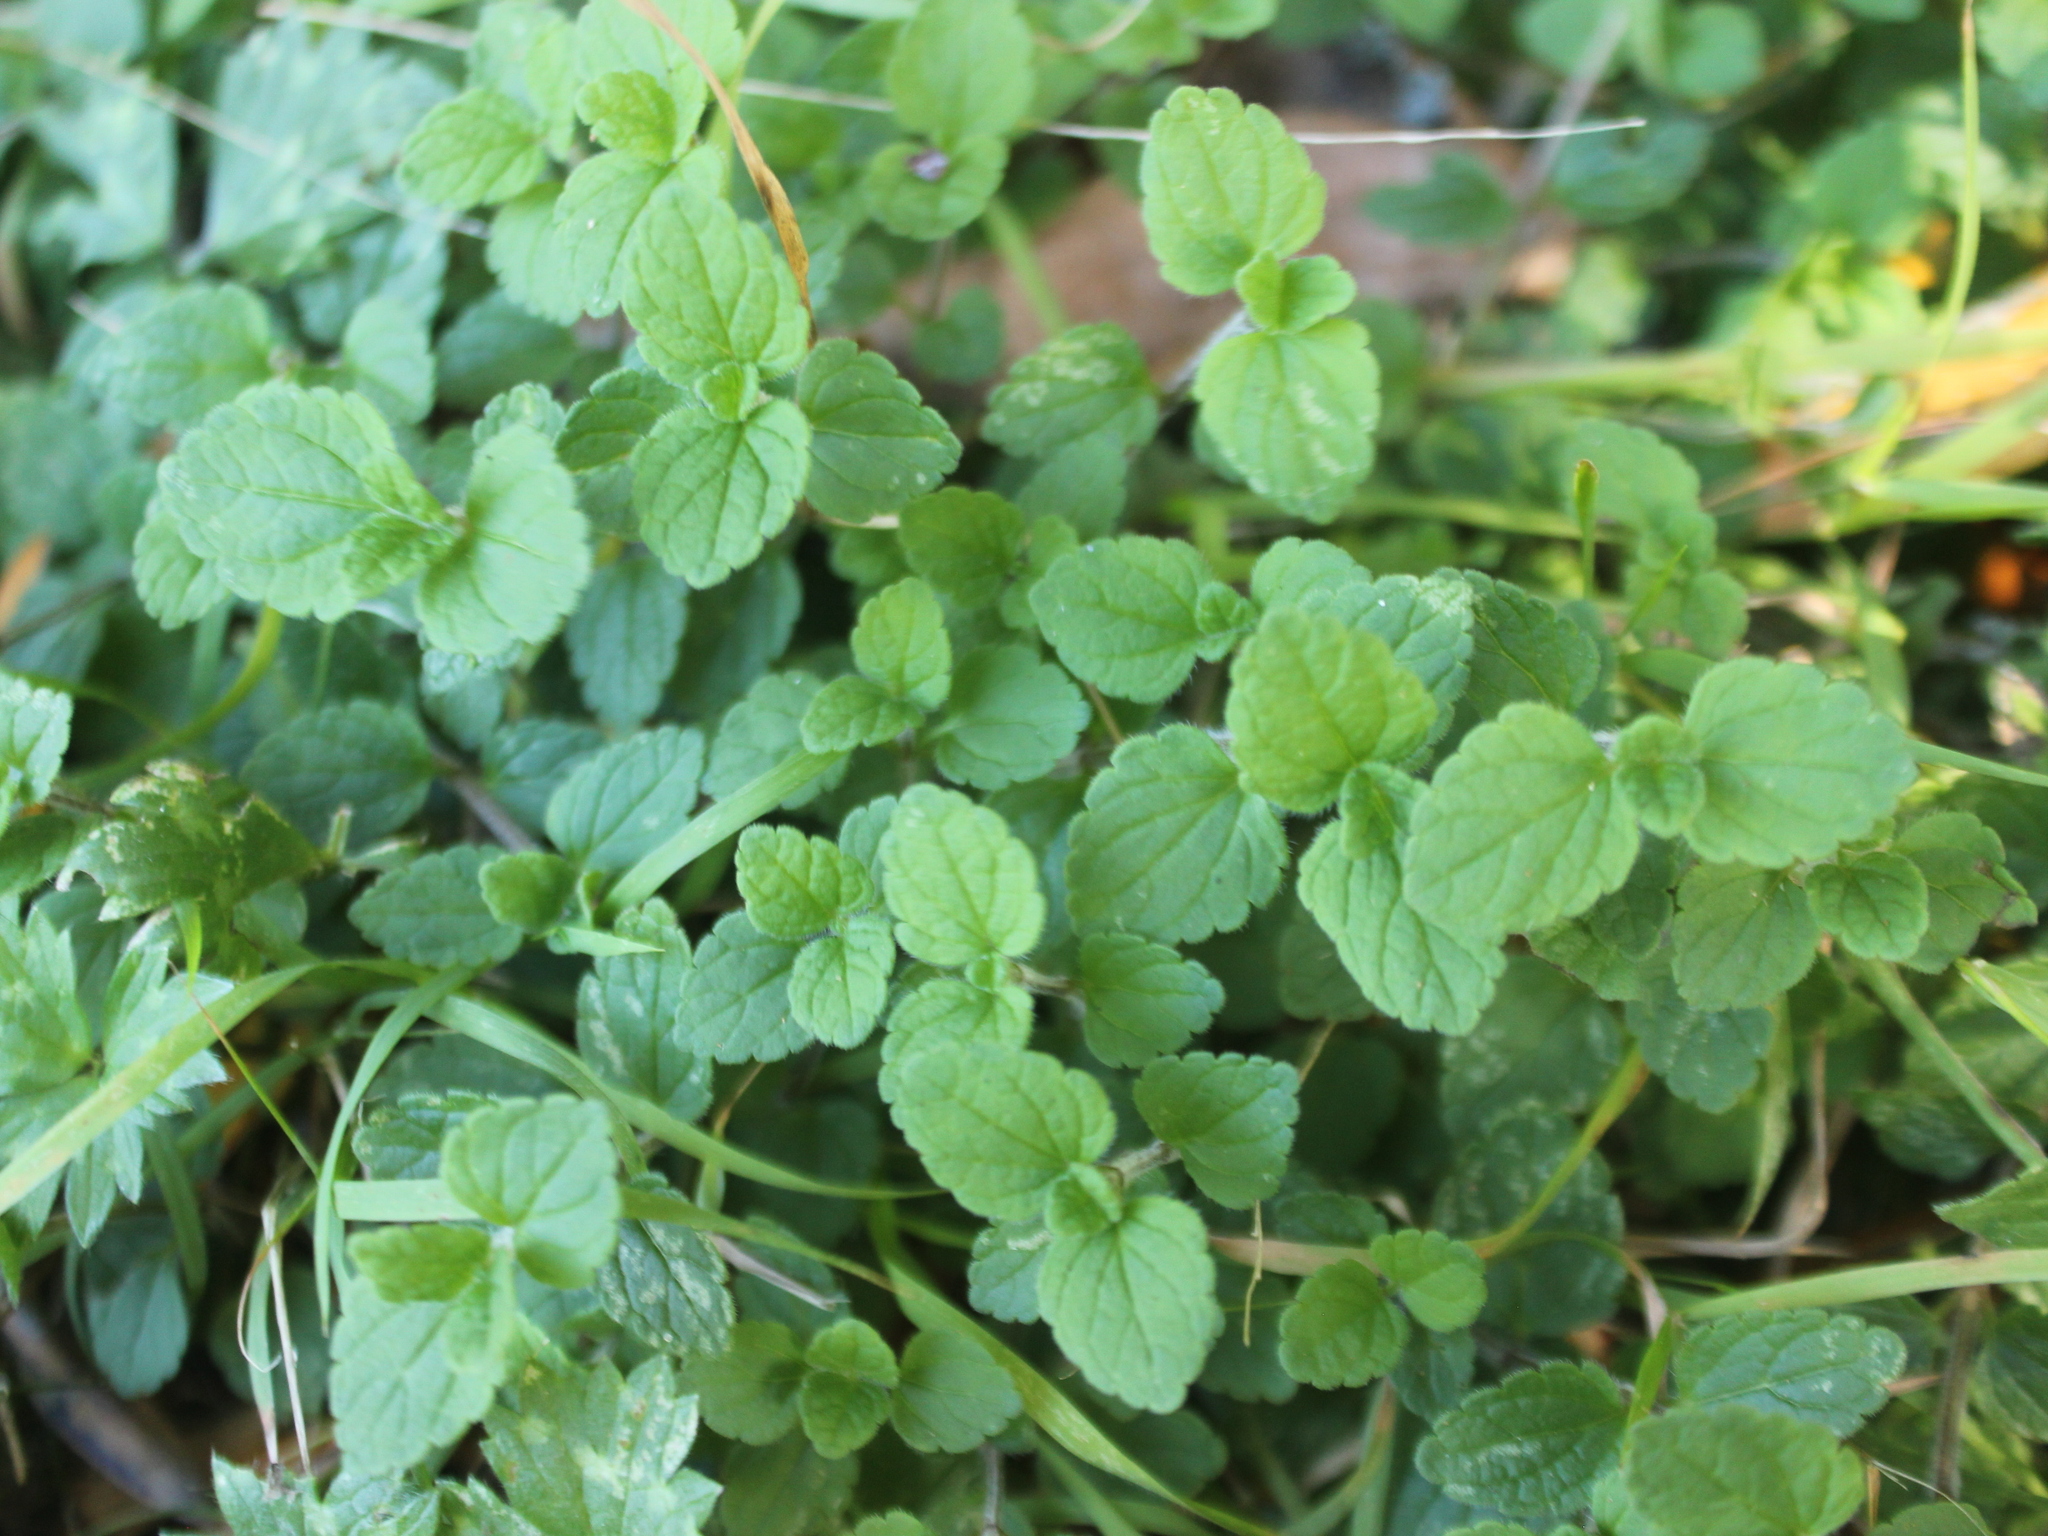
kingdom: Plantae
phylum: Tracheophyta
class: Magnoliopsida
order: Lamiales
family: Plantaginaceae
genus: Veronica
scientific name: Veronica chamaedrys
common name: Germander speedwell
